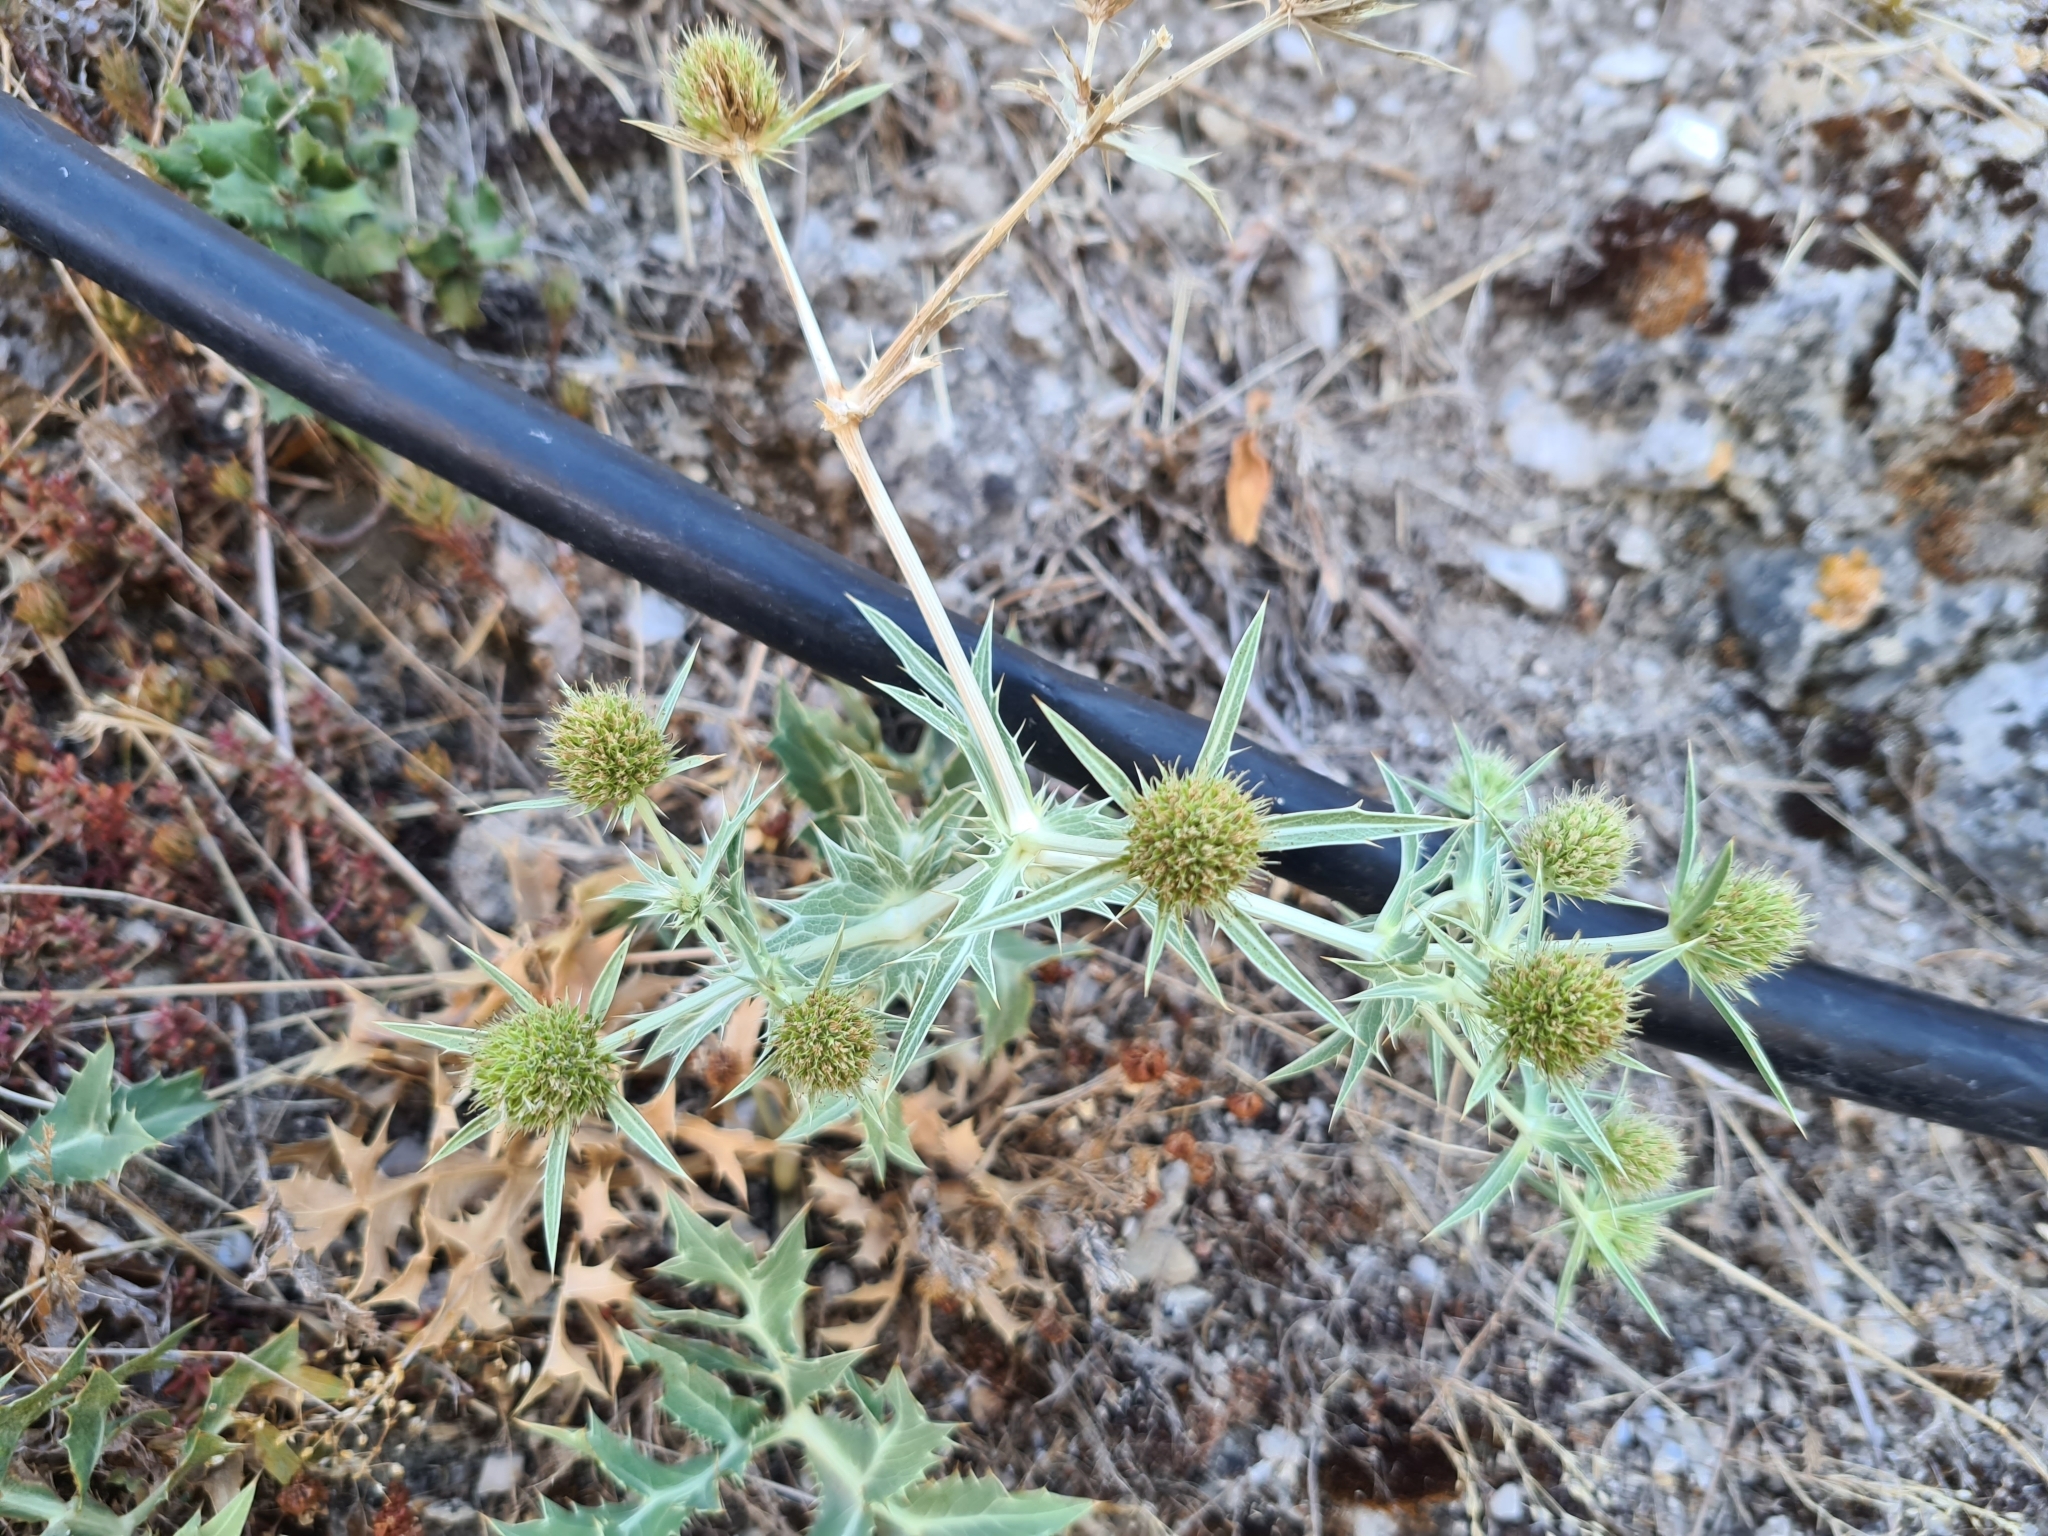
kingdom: Plantae
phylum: Tracheophyta
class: Magnoliopsida
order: Apiales
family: Apiaceae
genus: Eryngium
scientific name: Eryngium campestre
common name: Field eryngo
